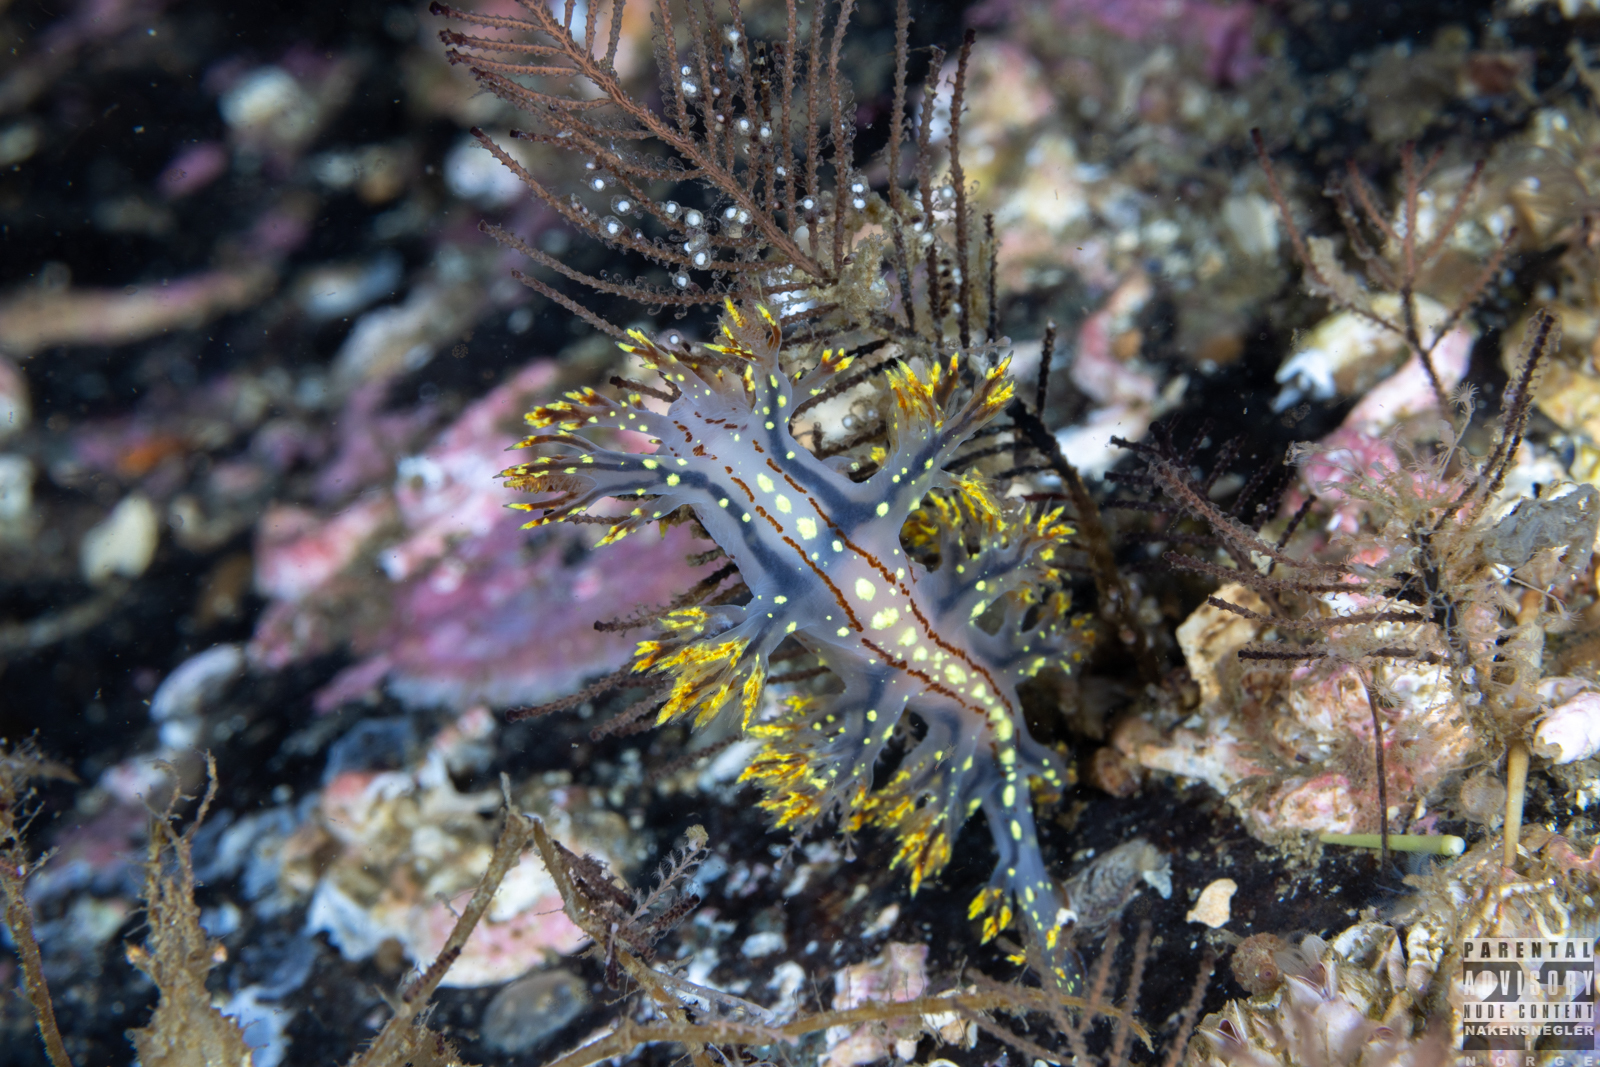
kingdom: Animalia
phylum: Mollusca
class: Gastropoda
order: Nudibranchia
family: Dendronotidae
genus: Dendronotus
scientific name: Dendronotus yrjargul
